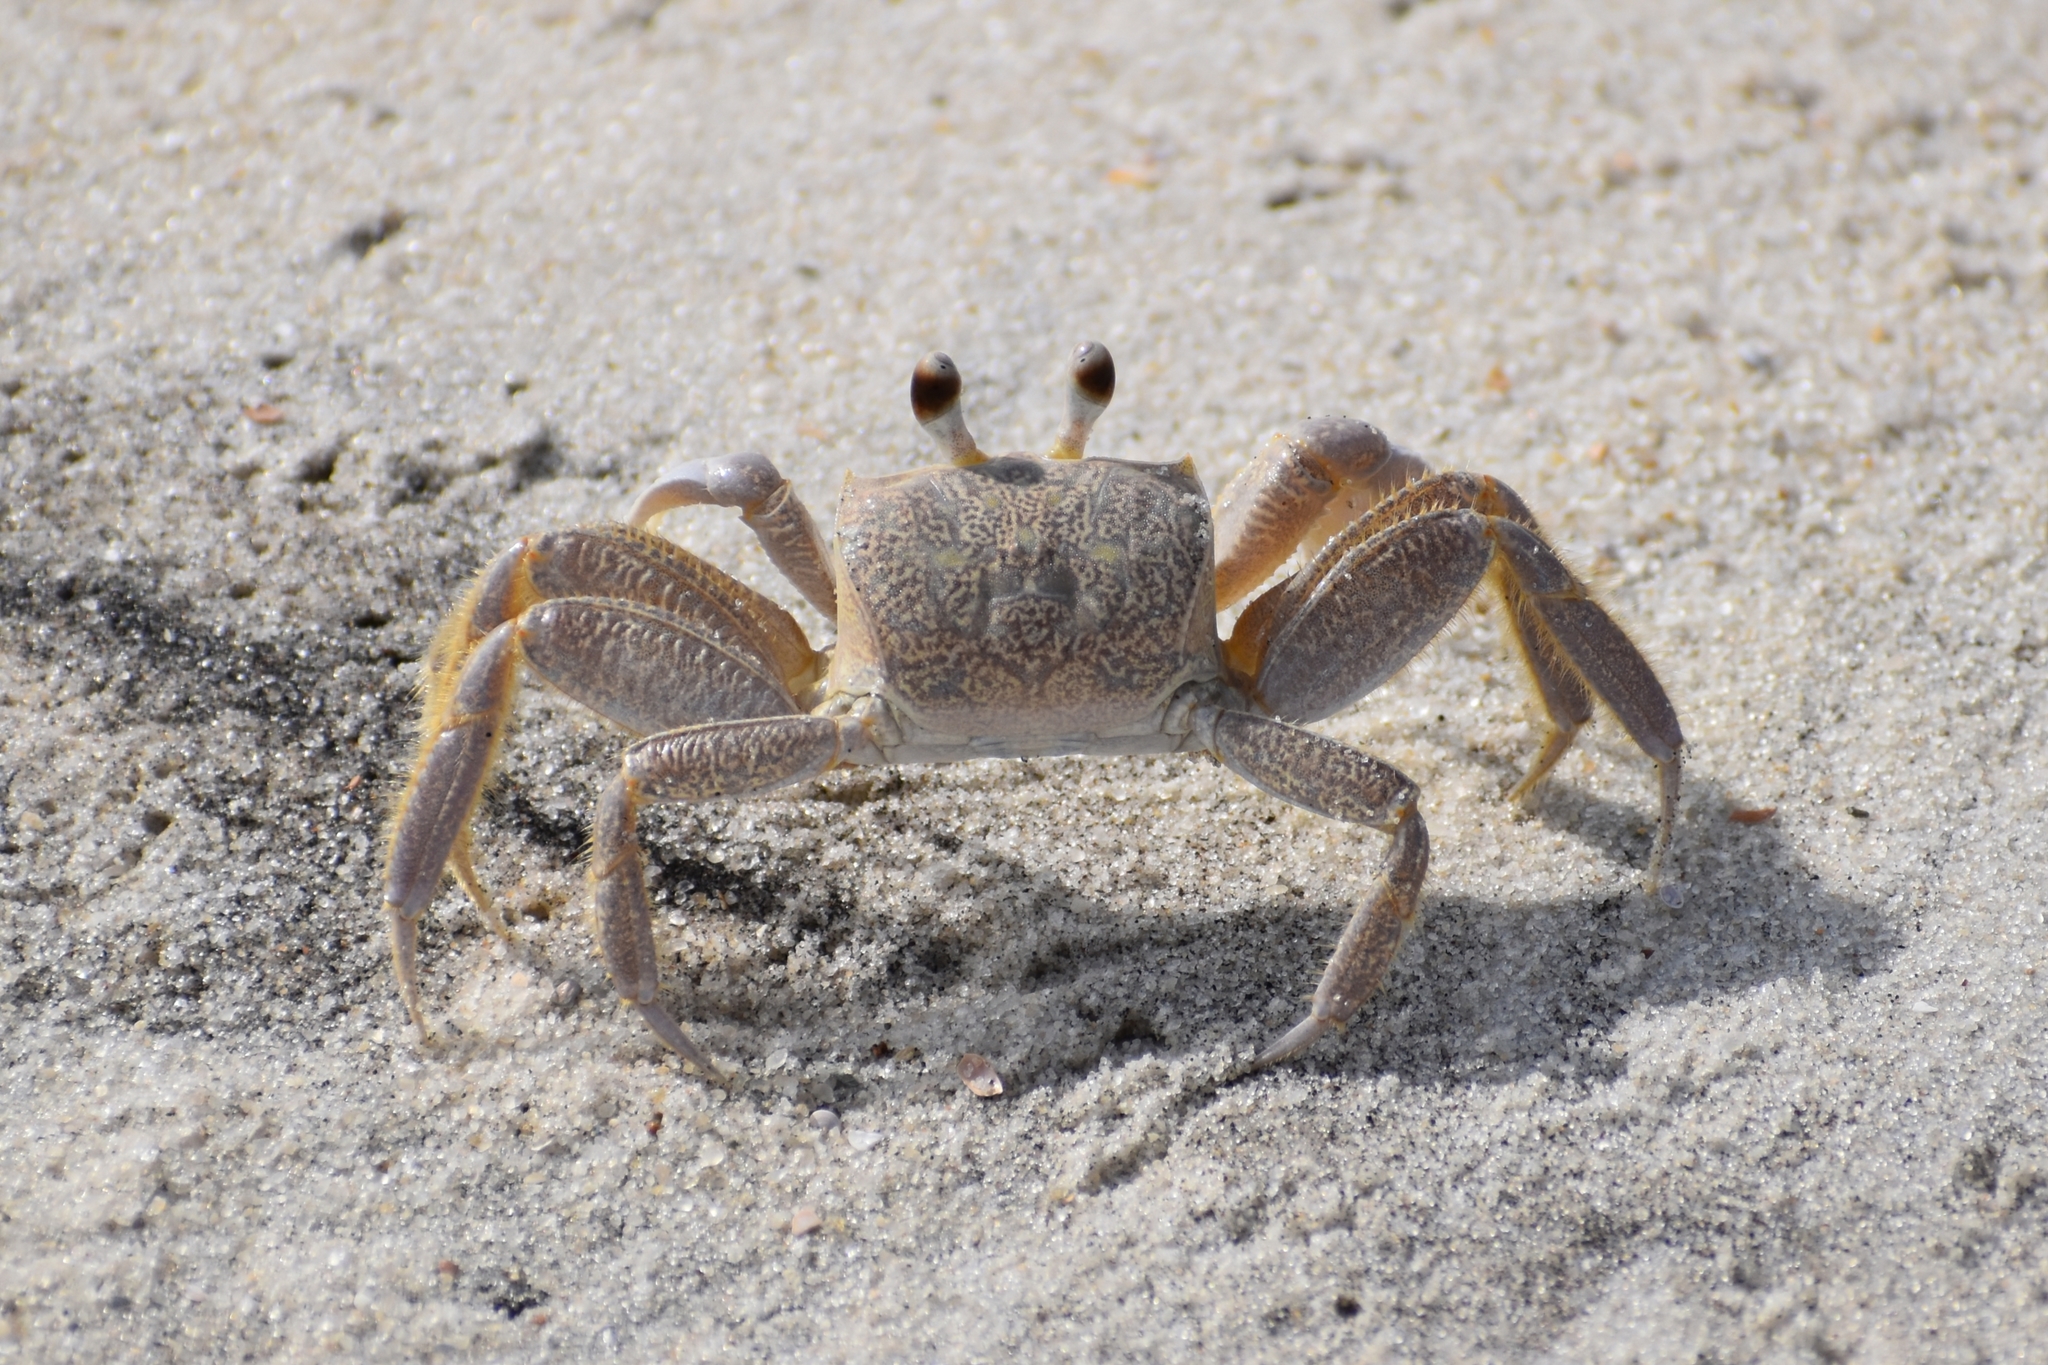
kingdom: Animalia
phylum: Arthropoda
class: Malacostraca
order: Decapoda
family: Ocypodidae
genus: Ocypode
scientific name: Ocypode quadrata
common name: Ghost crab
